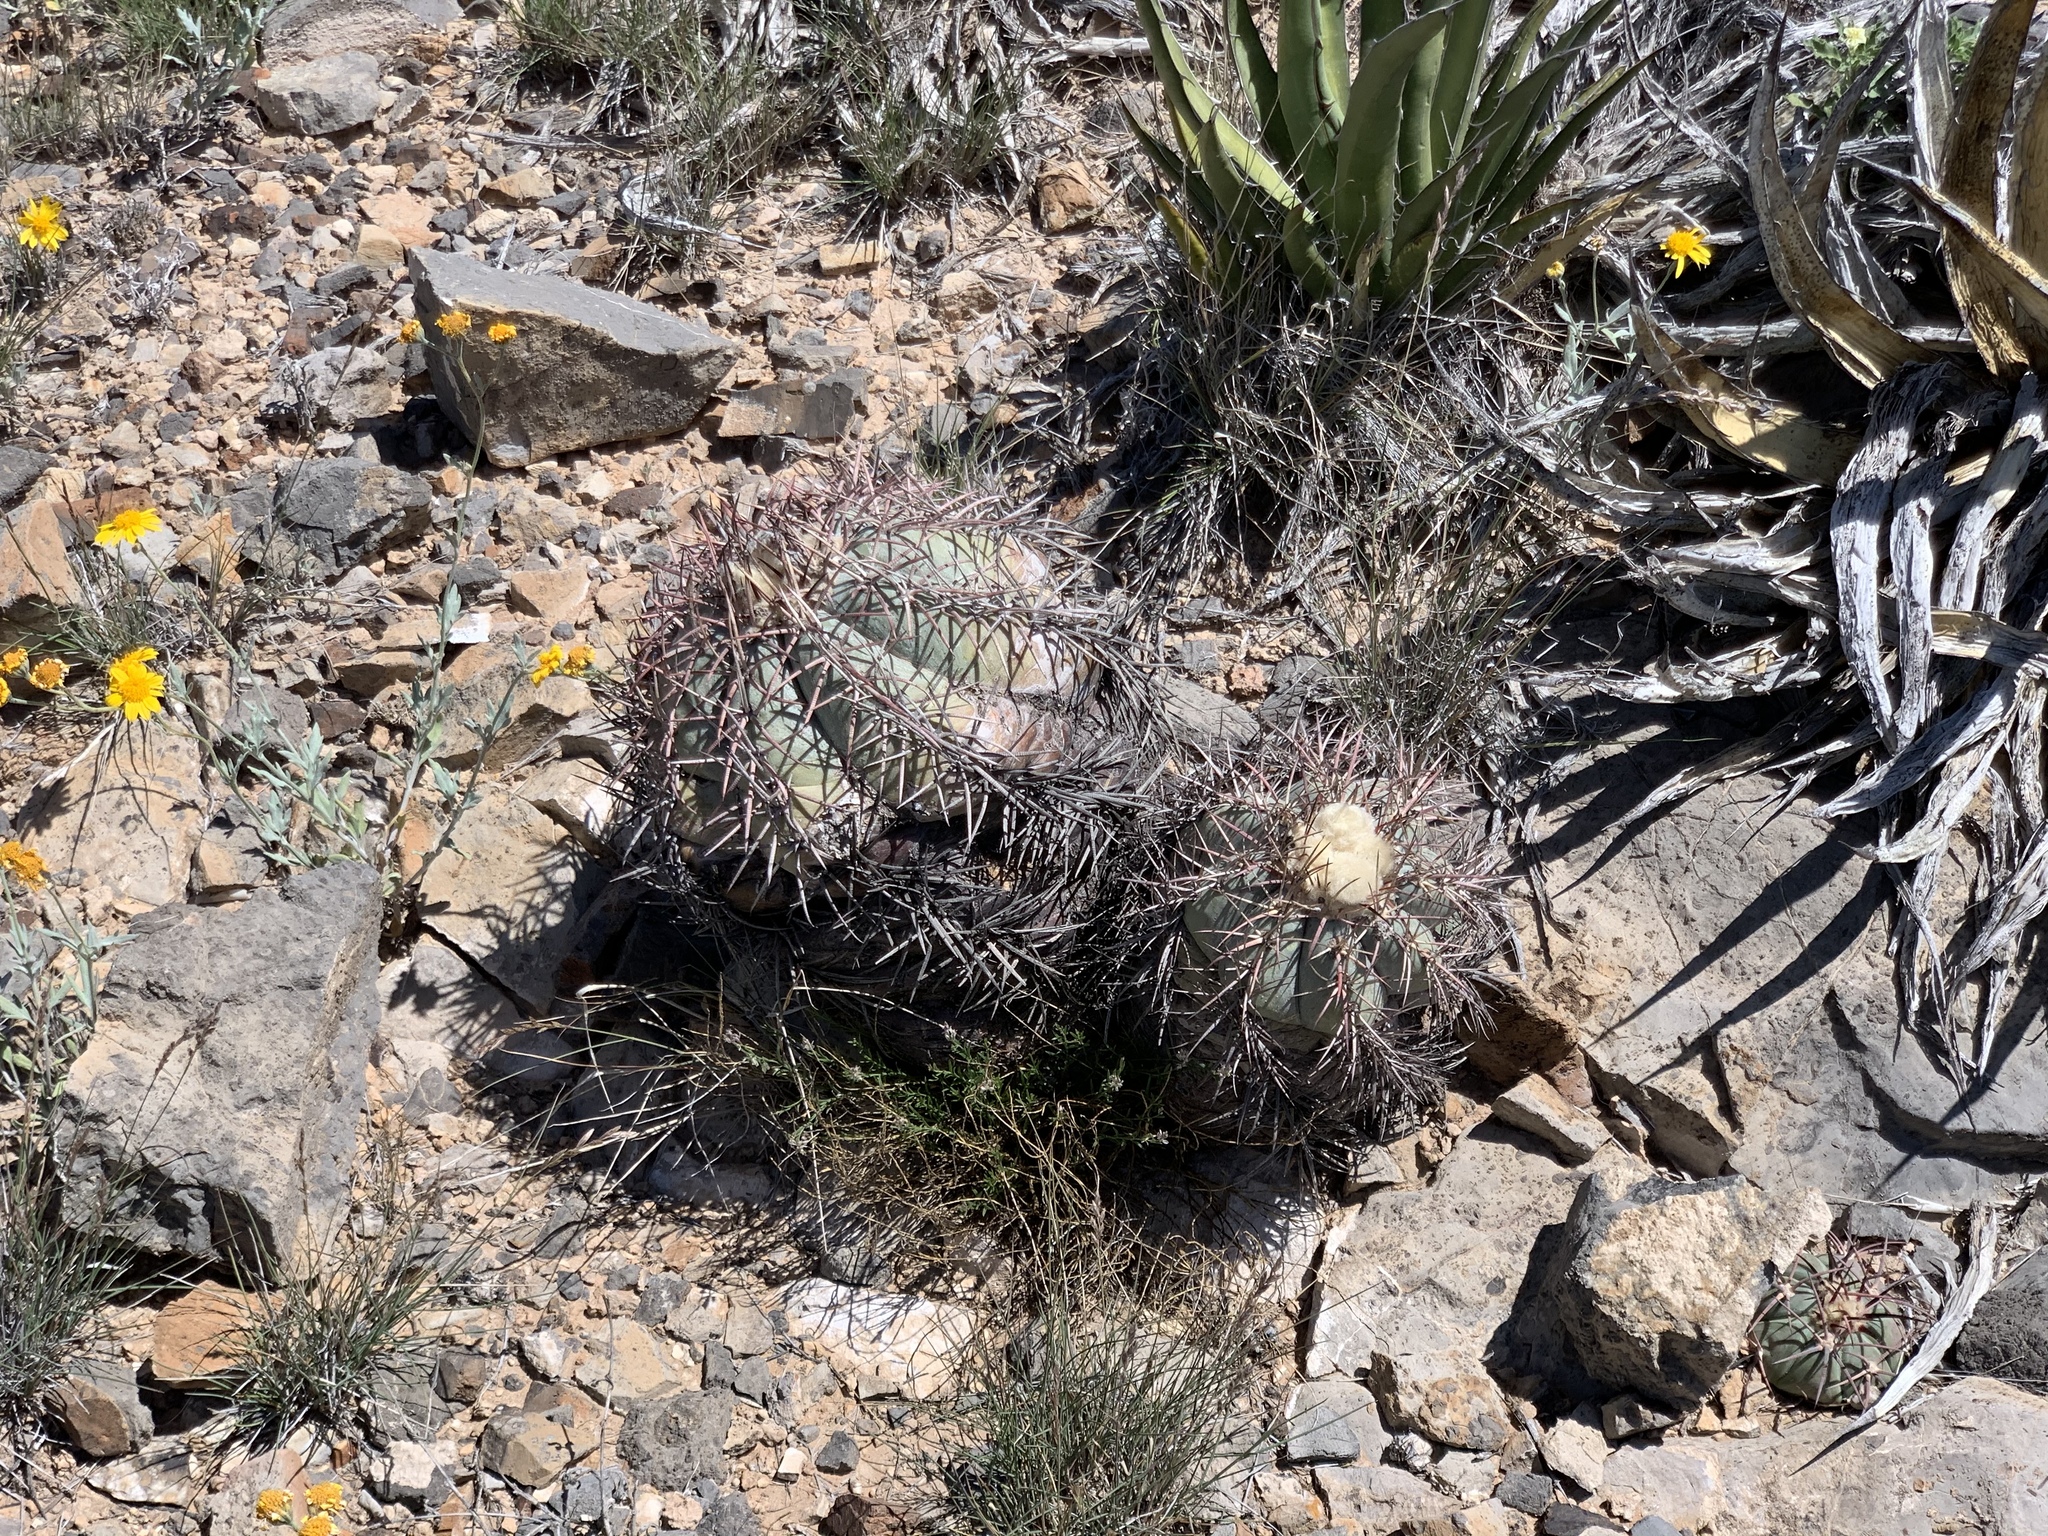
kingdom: Plantae
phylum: Tracheophyta
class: Magnoliopsida
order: Caryophyllales
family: Cactaceae
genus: Echinocactus
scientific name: Echinocactus horizonthalonius
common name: Devilshead
